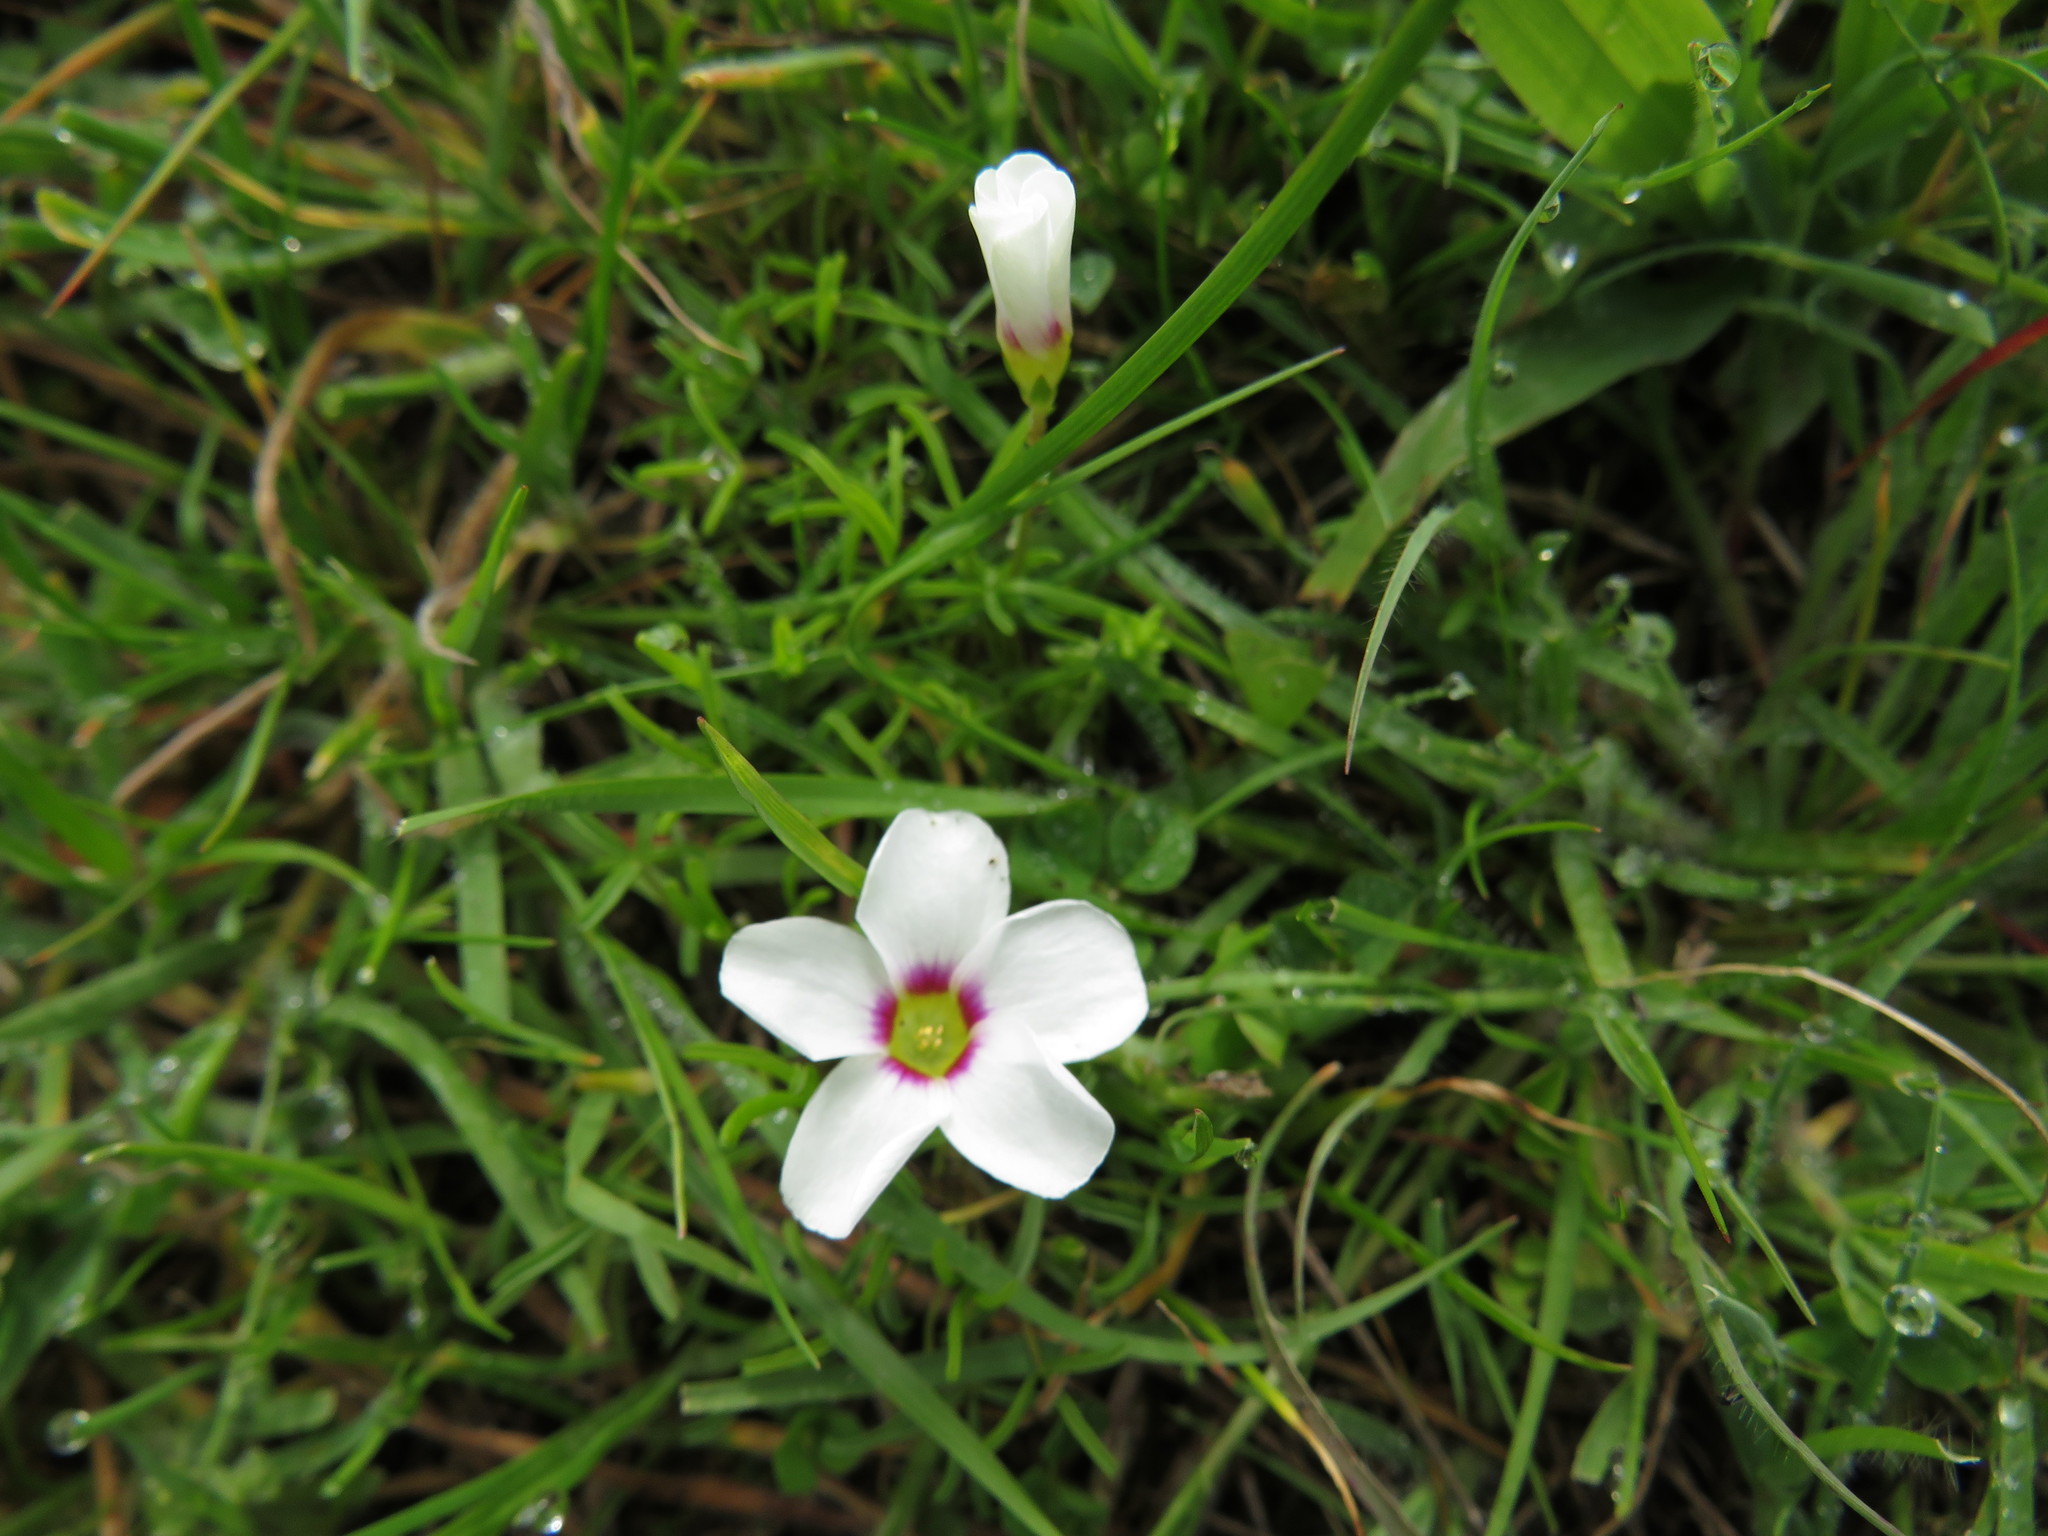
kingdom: Plantae
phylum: Tracheophyta
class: Magnoliopsida
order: Oxalidales
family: Oxalidaceae
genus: Oxalis
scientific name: Oxalis pusilla
